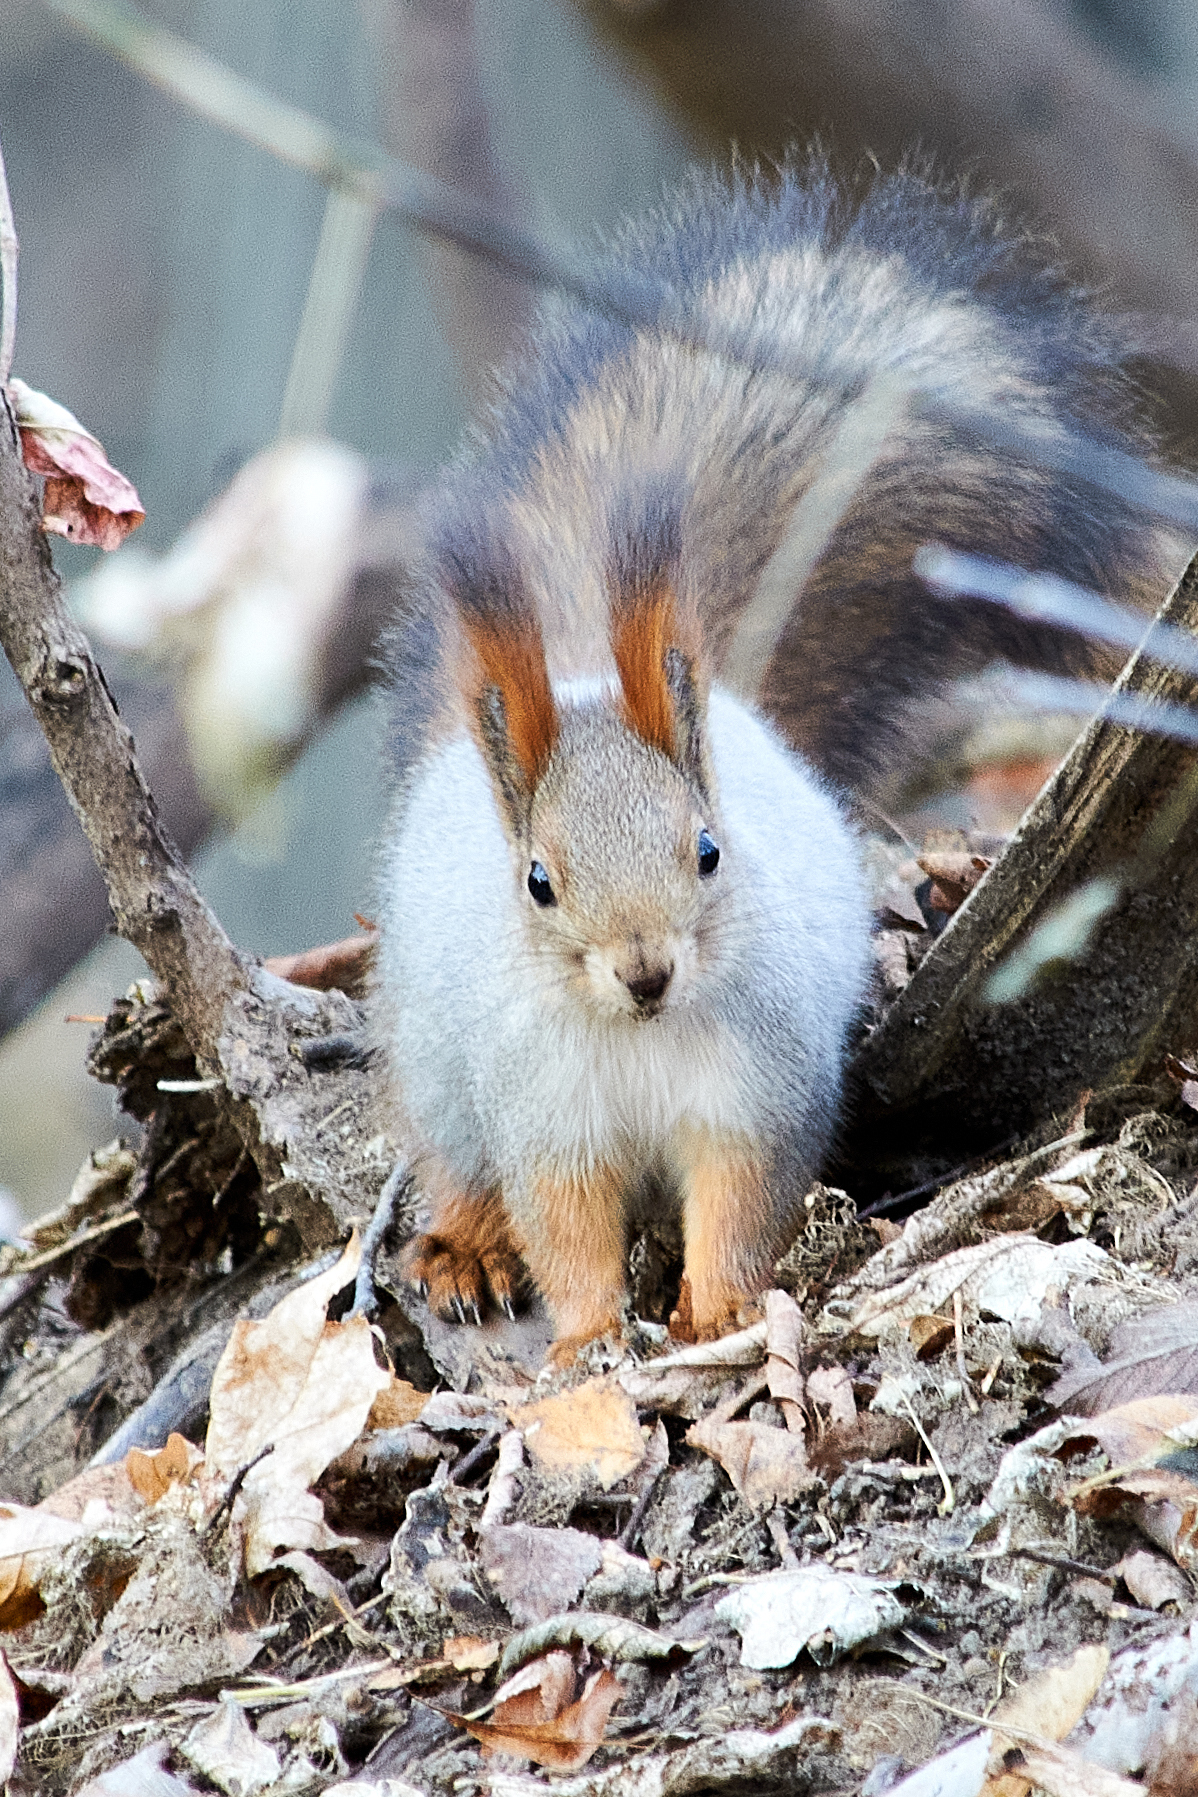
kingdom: Animalia
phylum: Chordata
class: Mammalia
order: Rodentia
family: Sciuridae
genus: Sciurus
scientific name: Sciurus vulgaris
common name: Eurasian red squirrel
